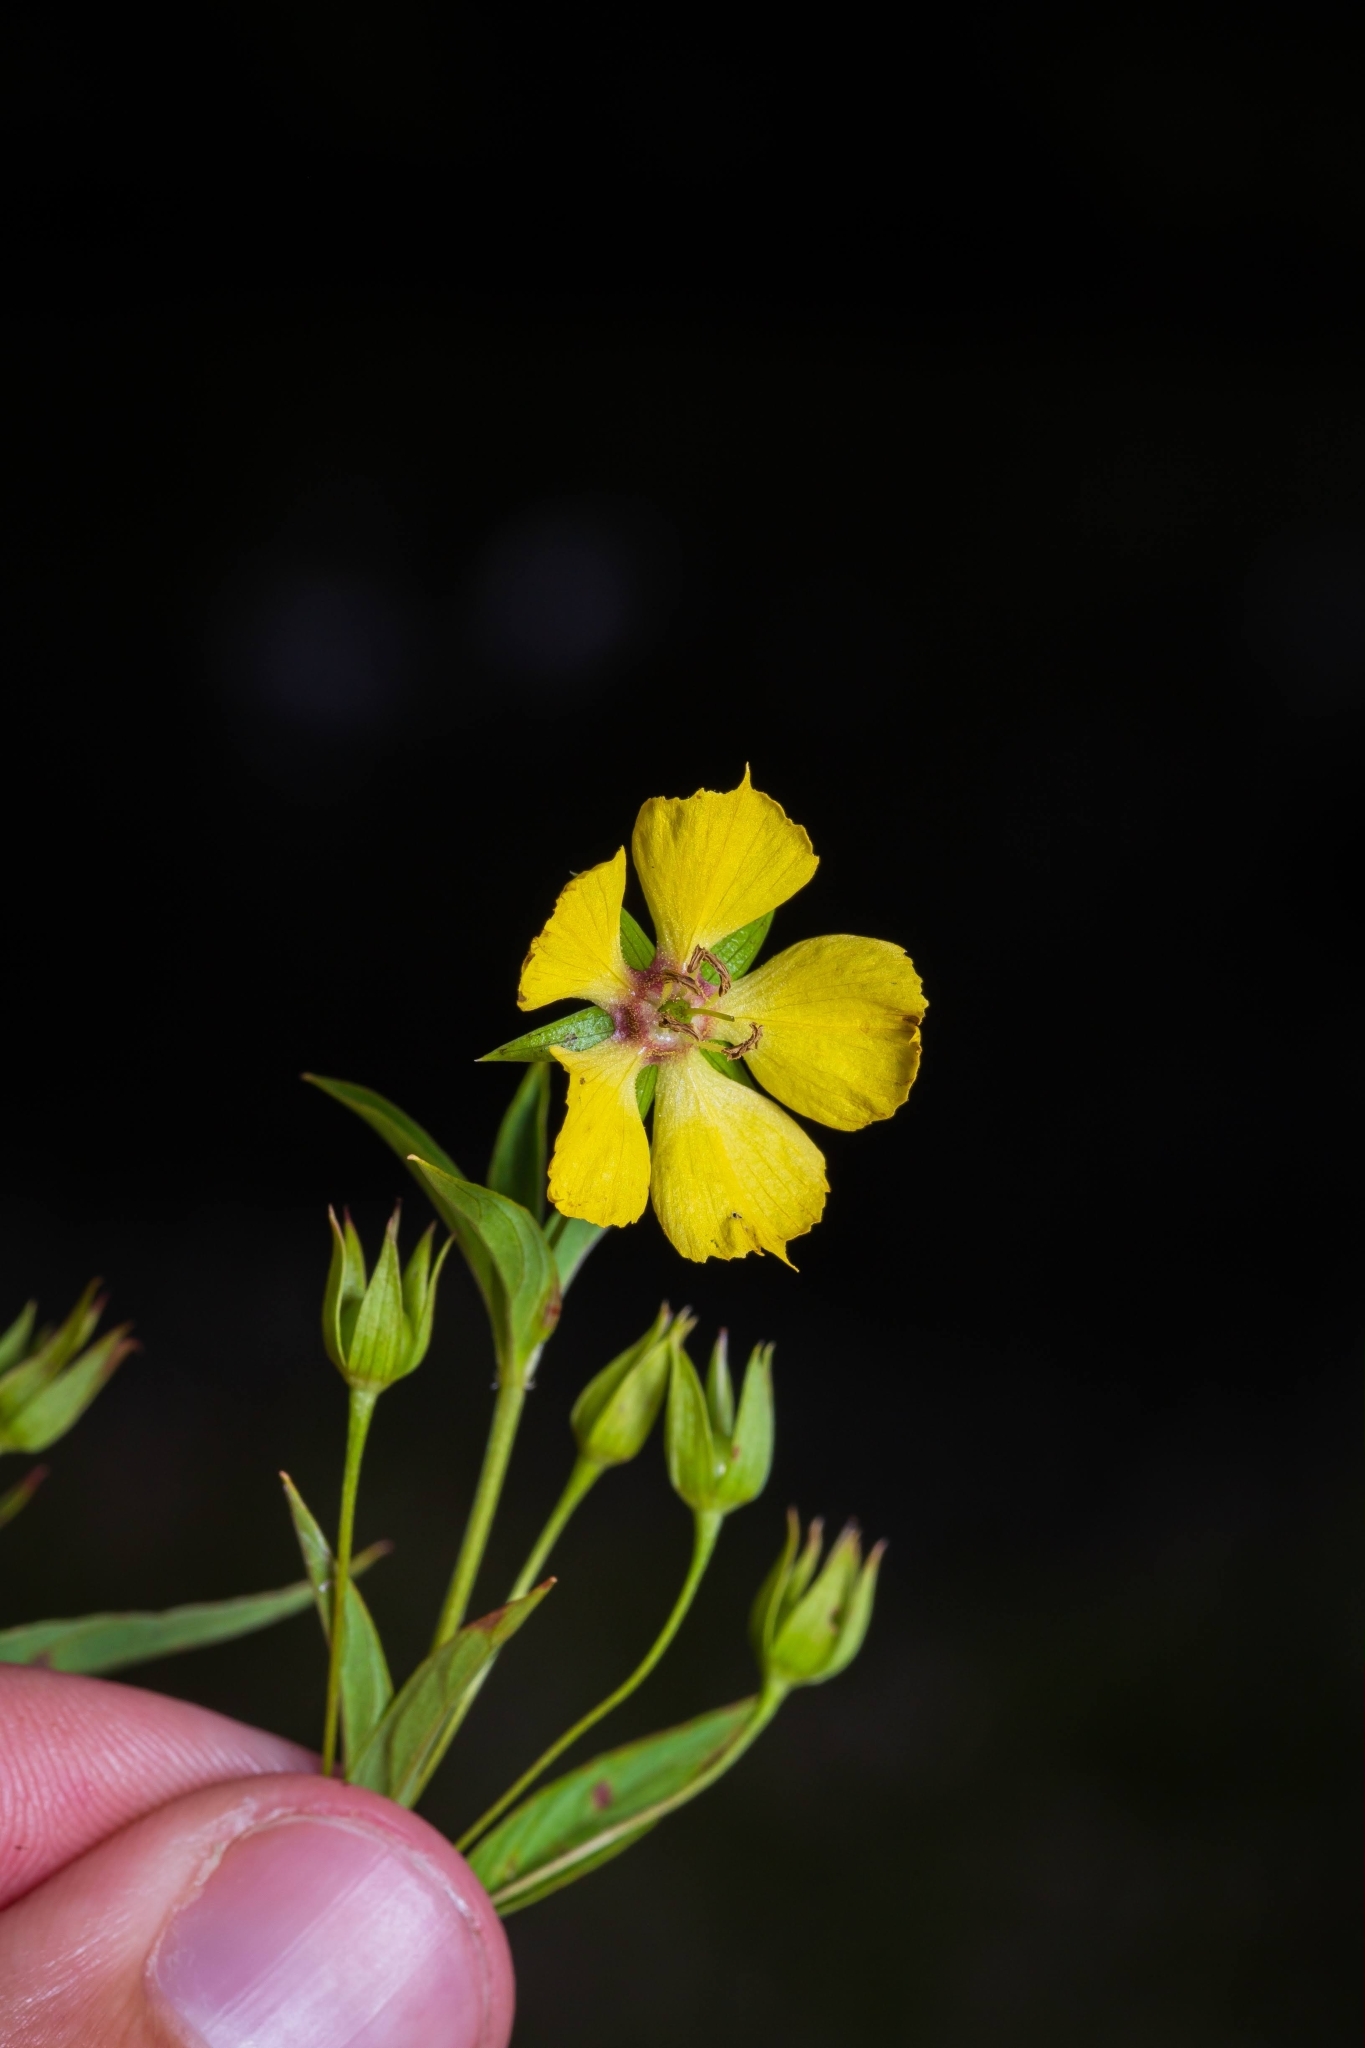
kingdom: Plantae
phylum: Tracheophyta
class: Magnoliopsida
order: Ericales
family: Primulaceae
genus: Lysimachia
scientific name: Lysimachia lanceolata
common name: Lance-leaved loosestrife
